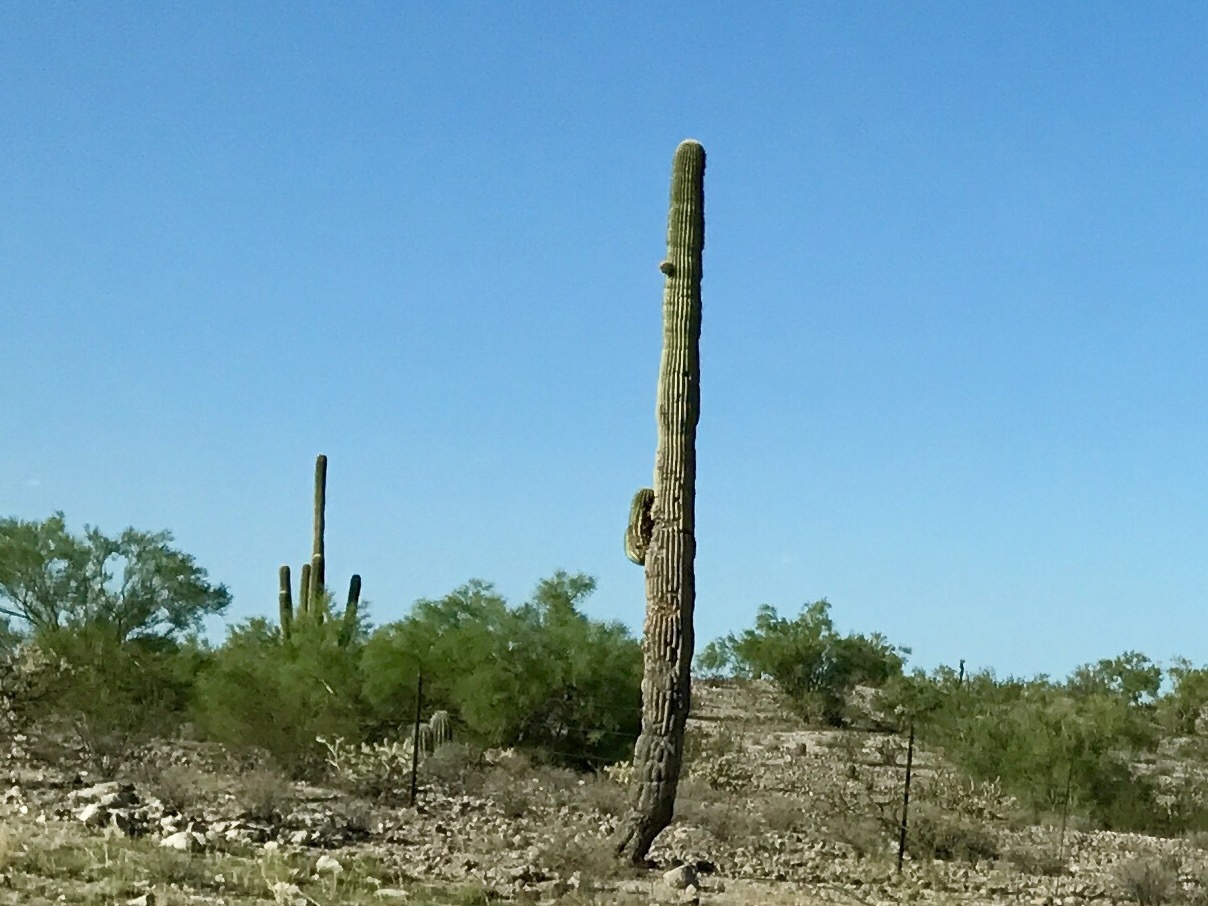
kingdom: Plantae
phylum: Tracheophyta
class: Magnoliopsida
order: Caryophyllales
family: Cactaceae
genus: Carnegiea
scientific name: Carnegiea gigantea
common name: Saguaro
